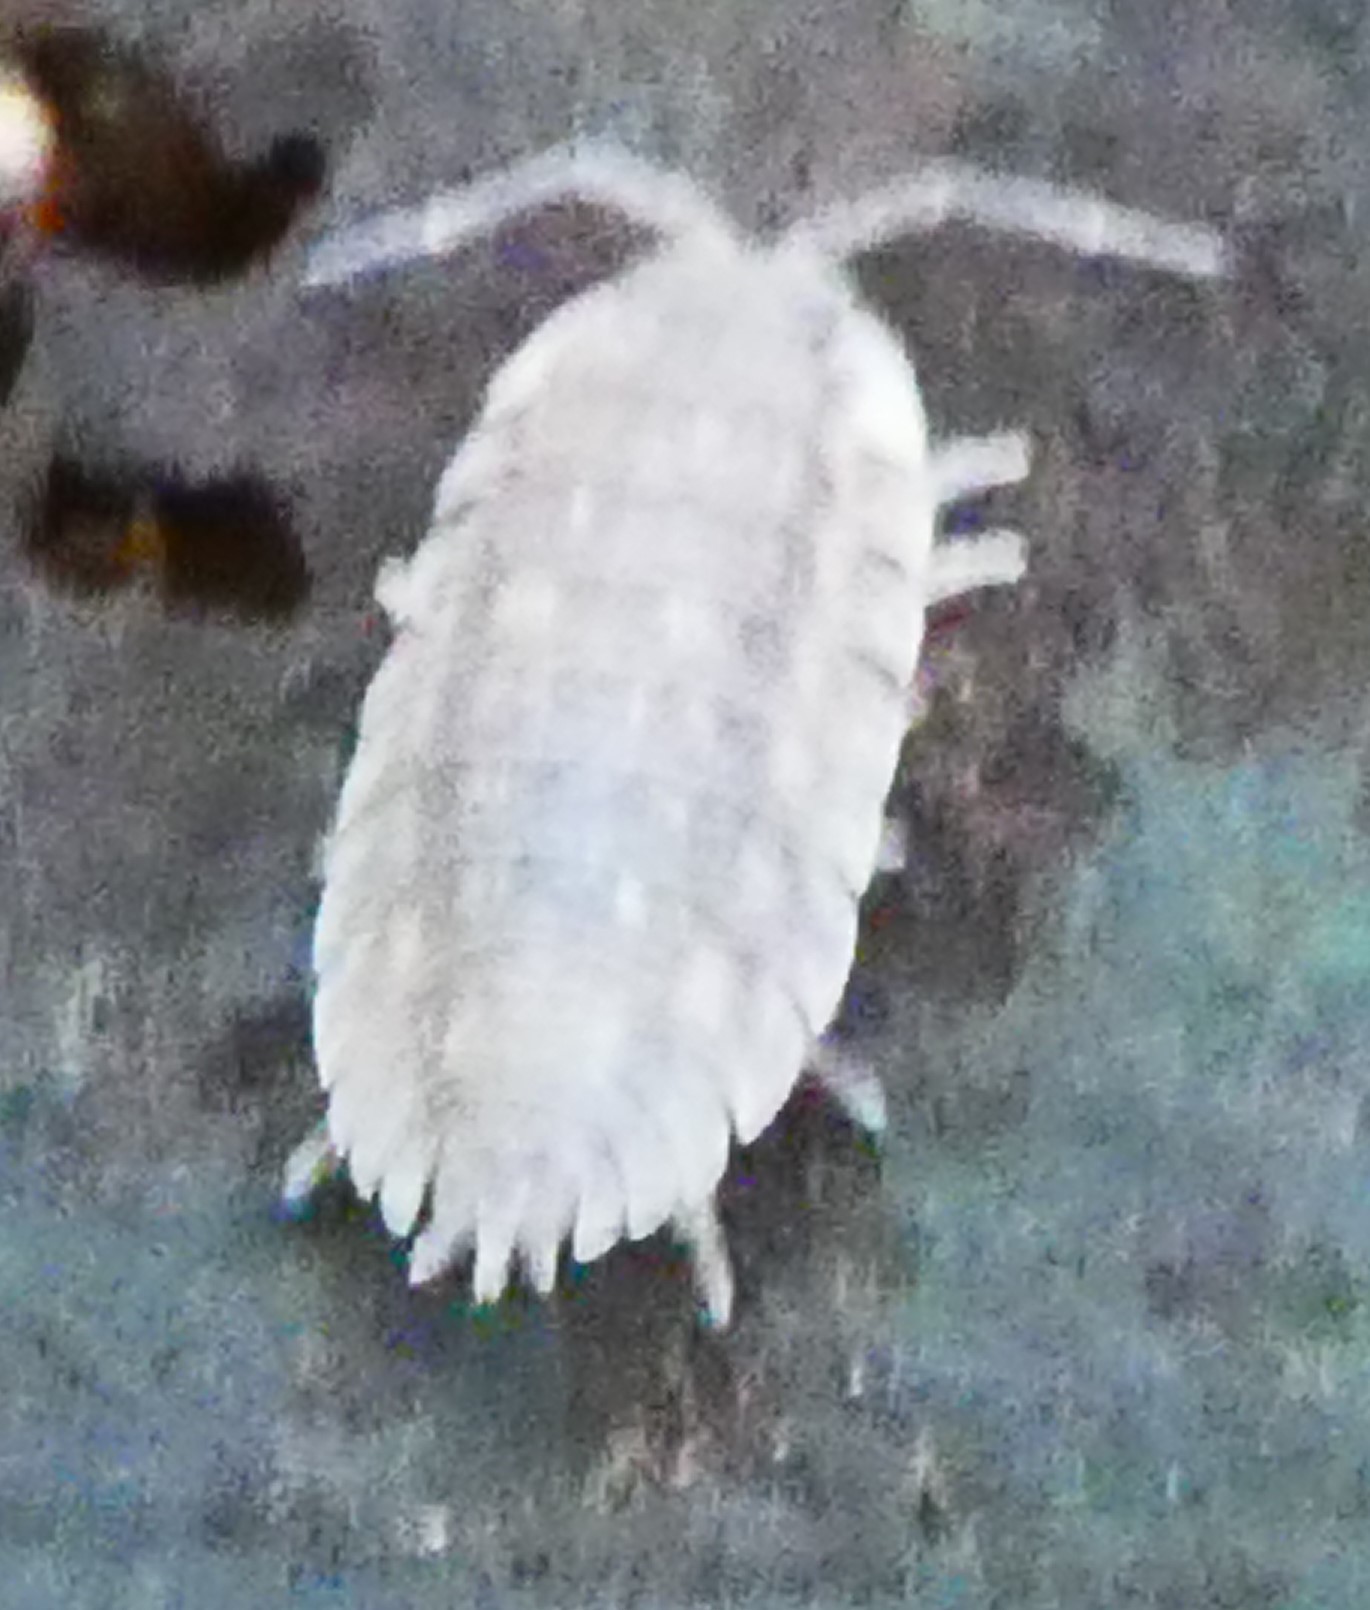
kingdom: Animalia
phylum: Arthropoda
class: Malacostraca
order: Isopoda
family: Oniscidae
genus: Oniscus
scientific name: Oniscus asellus
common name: Common shiny woodlouse
